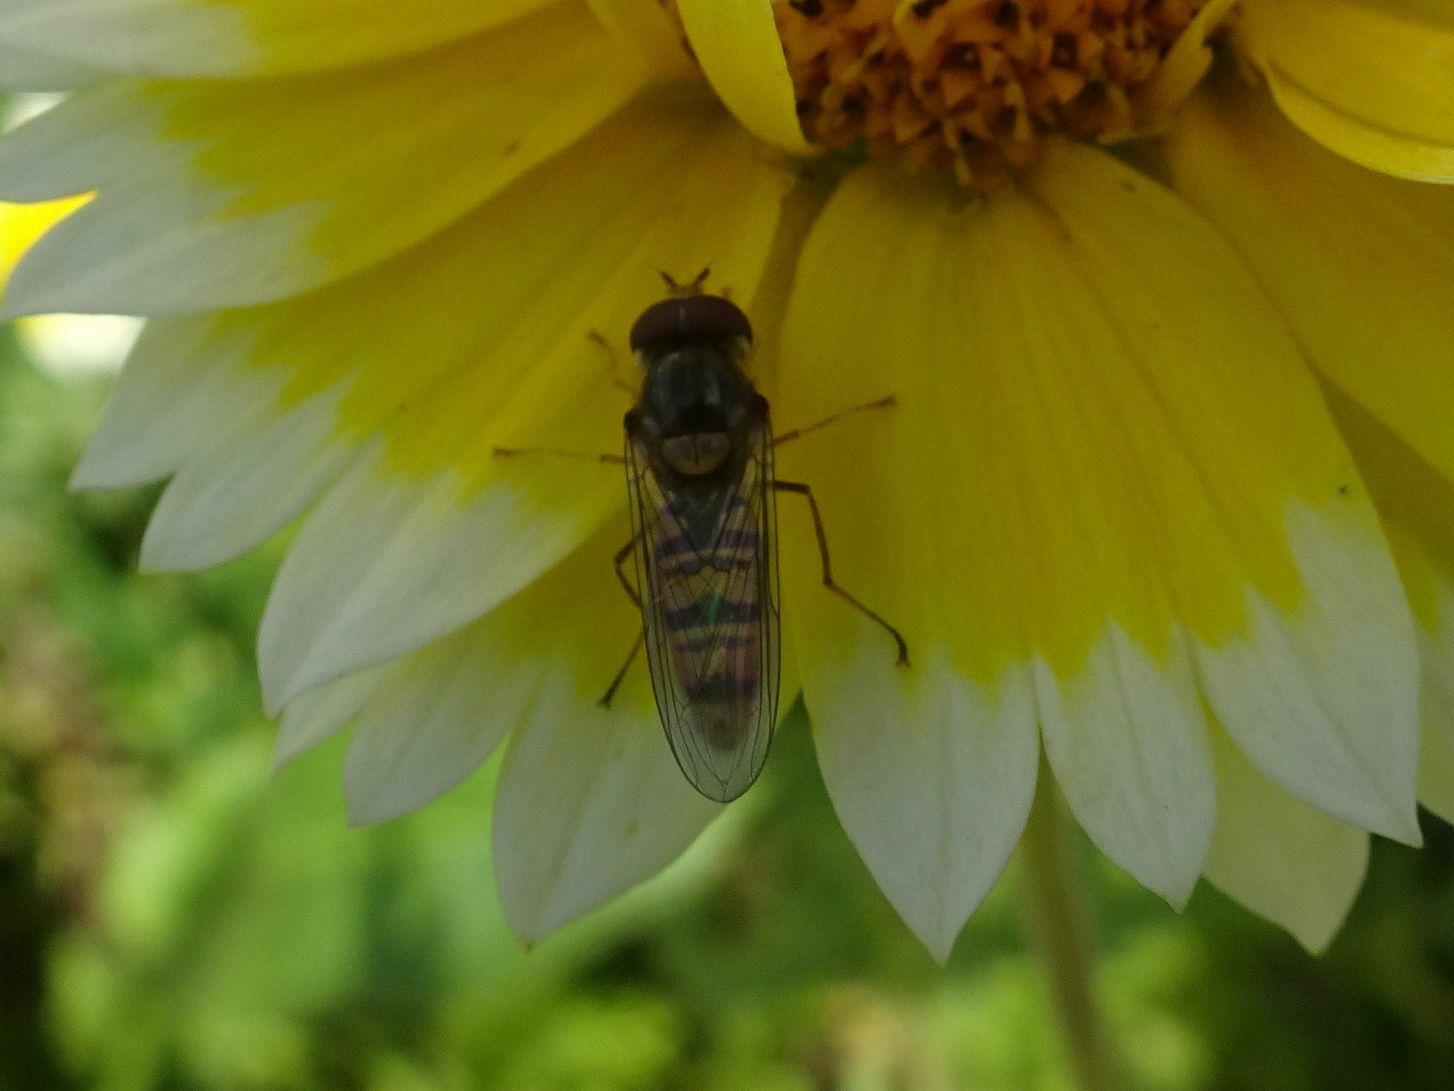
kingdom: Animalia
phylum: Arthropoda
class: Insecta
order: Diptera
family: Syrphidae
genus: Episyrphus
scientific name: Episyrphus balteatus
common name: Marmalade hoverfly
